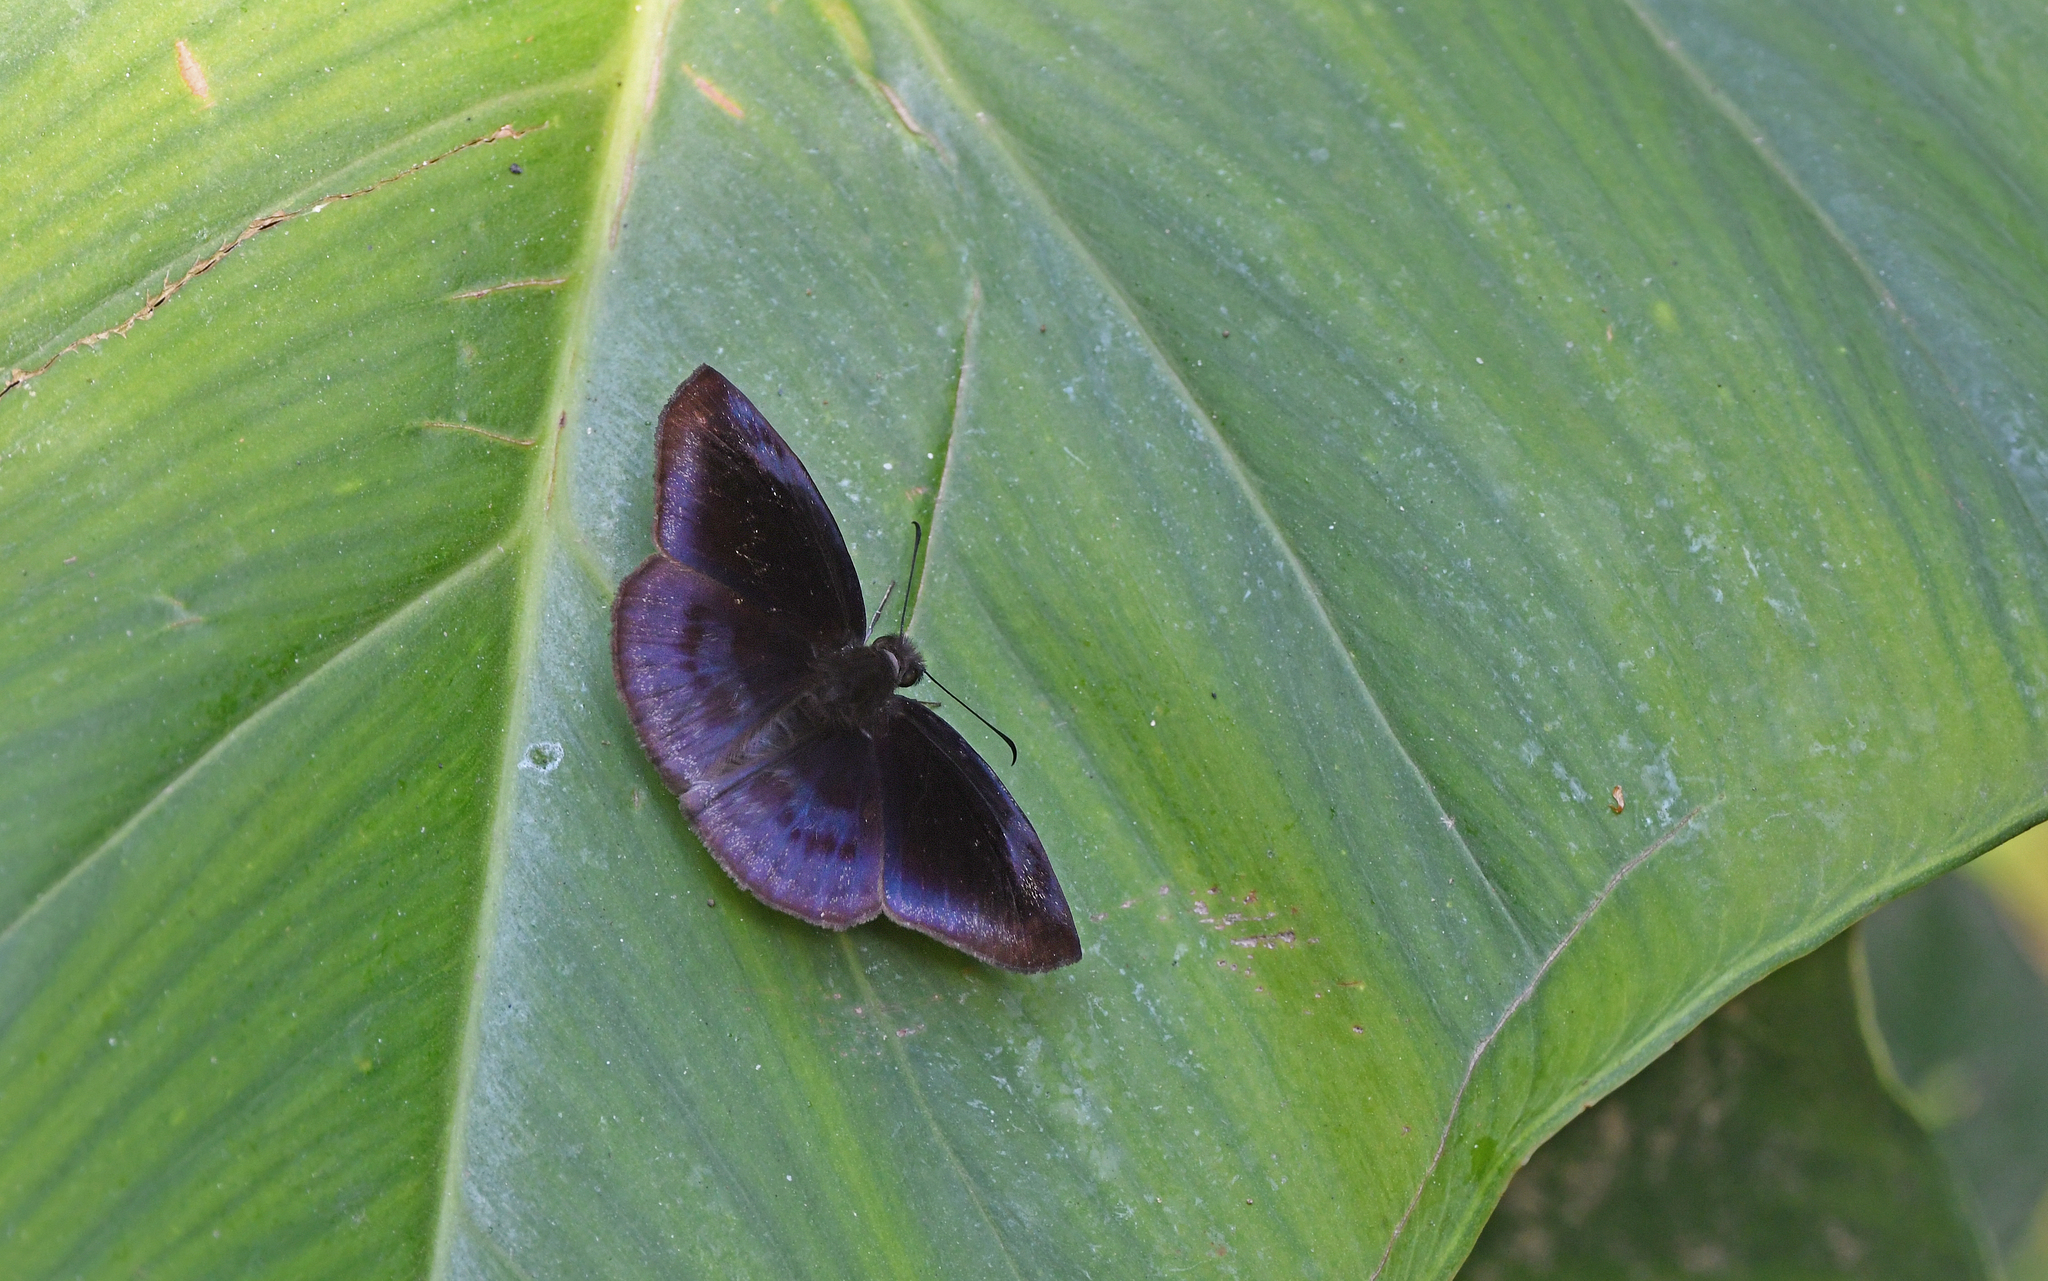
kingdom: Animalia
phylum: Arthropoda
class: Insecta
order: Lepidoptera
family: Hesperiidae
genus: Anastrus
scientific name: Anastrus meliboea
